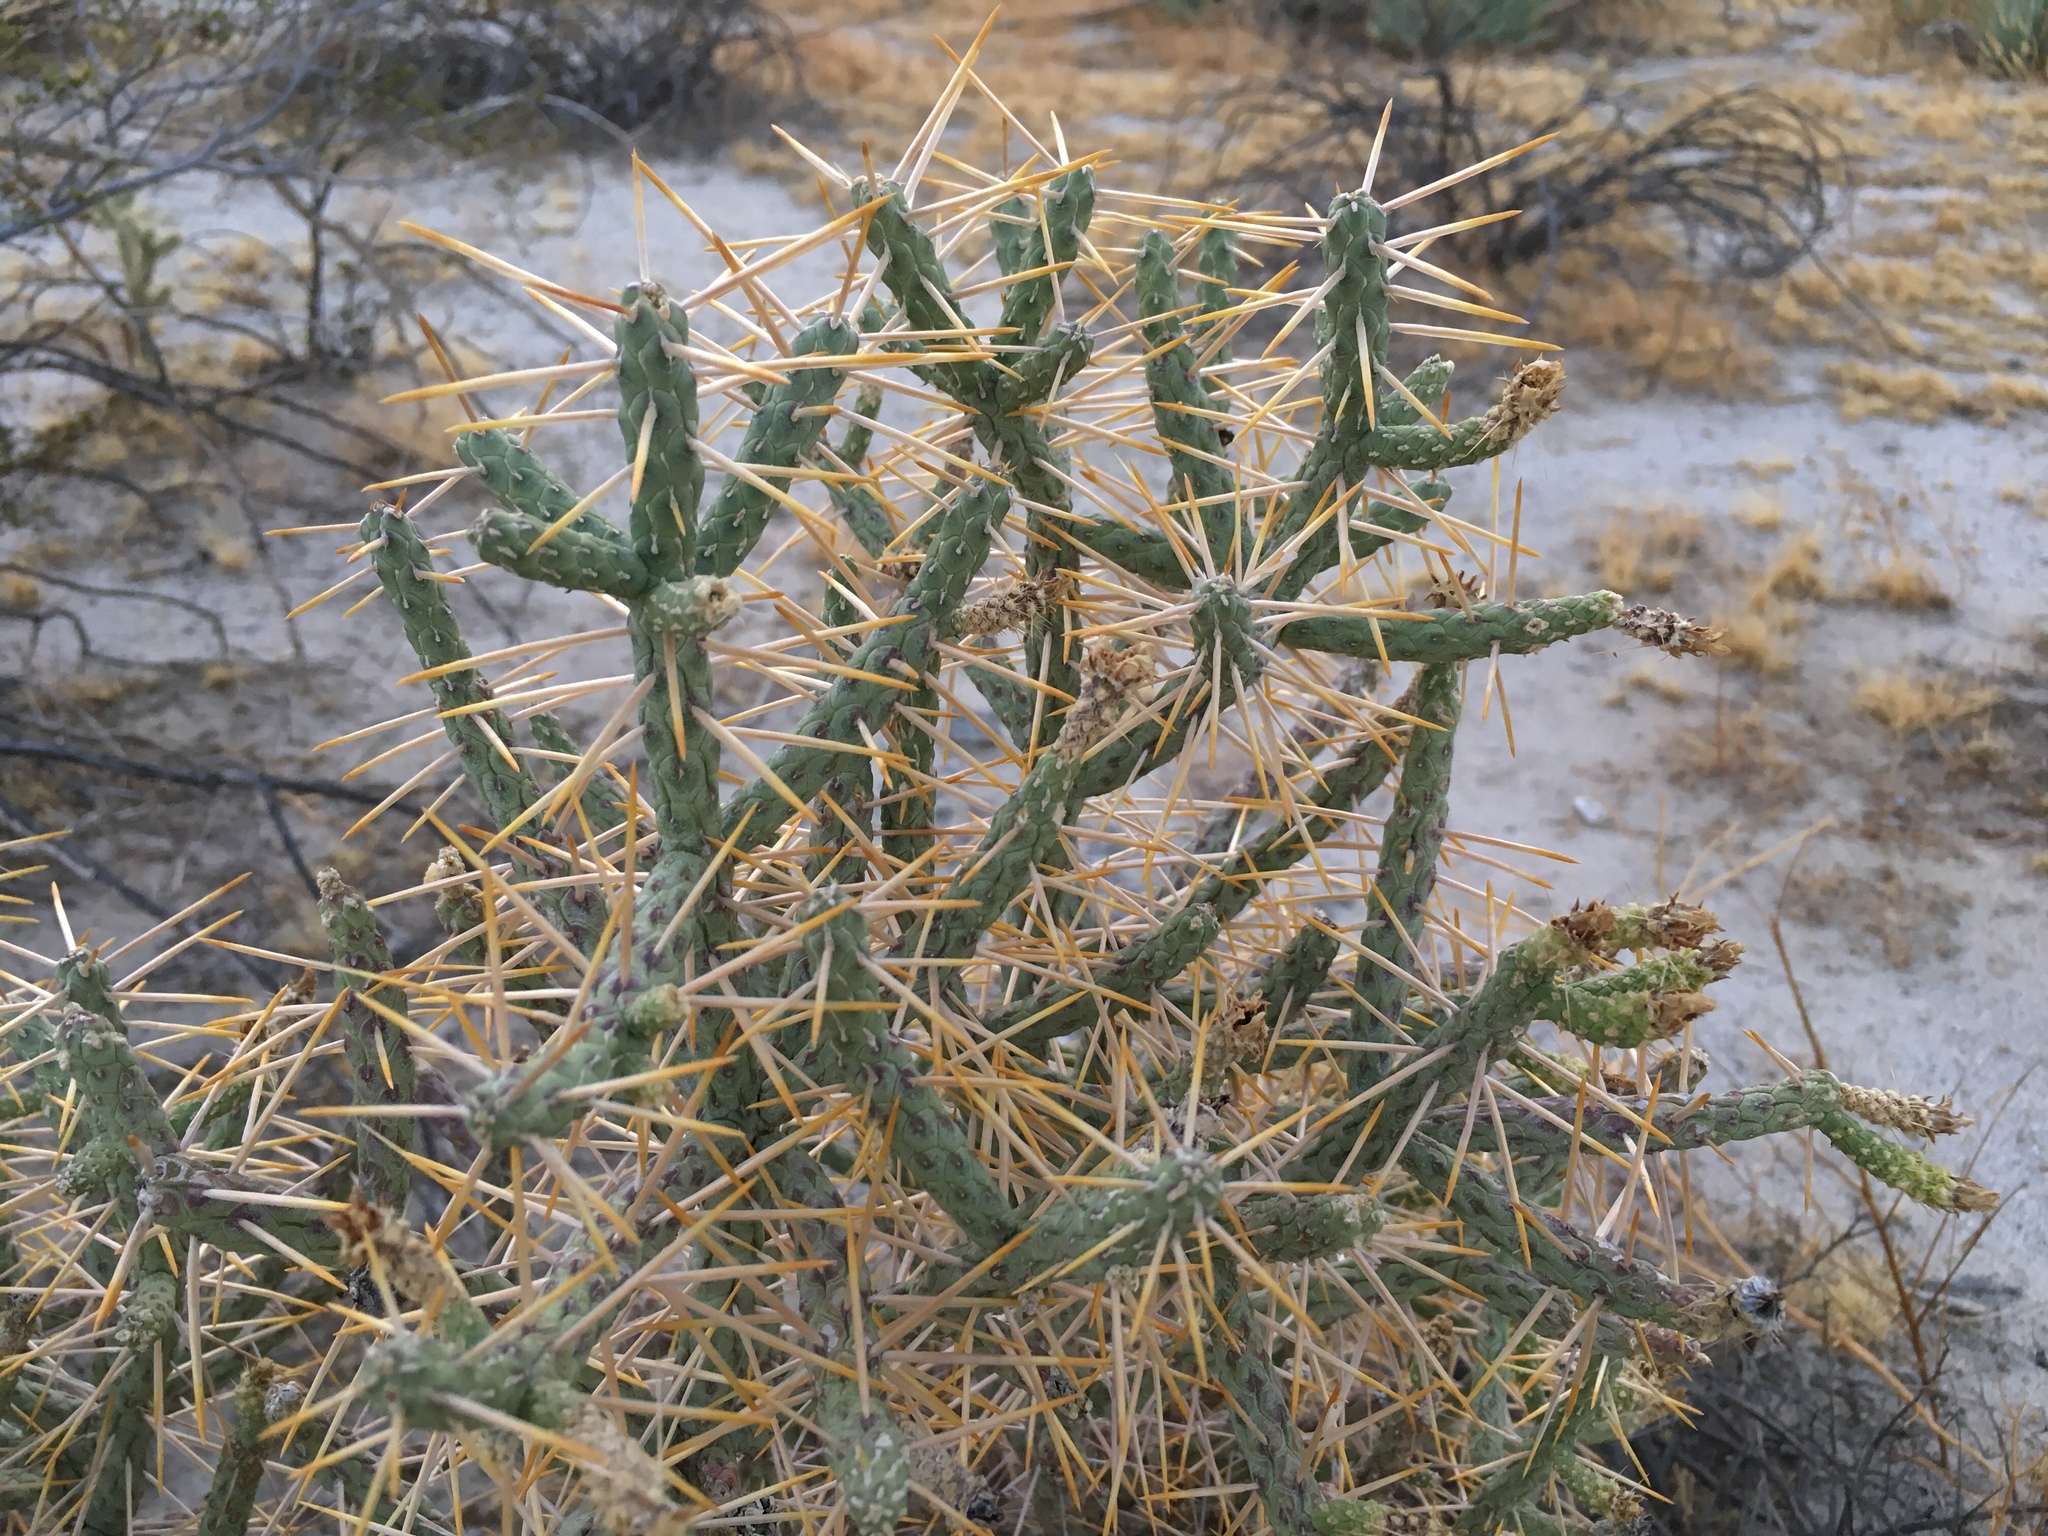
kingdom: Plantae
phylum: Tracheophyta
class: Magnoliopsida
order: Caryophyllales
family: Cactaceae
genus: Cylindropuntia
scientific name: Cylindropuntia ramosissima
